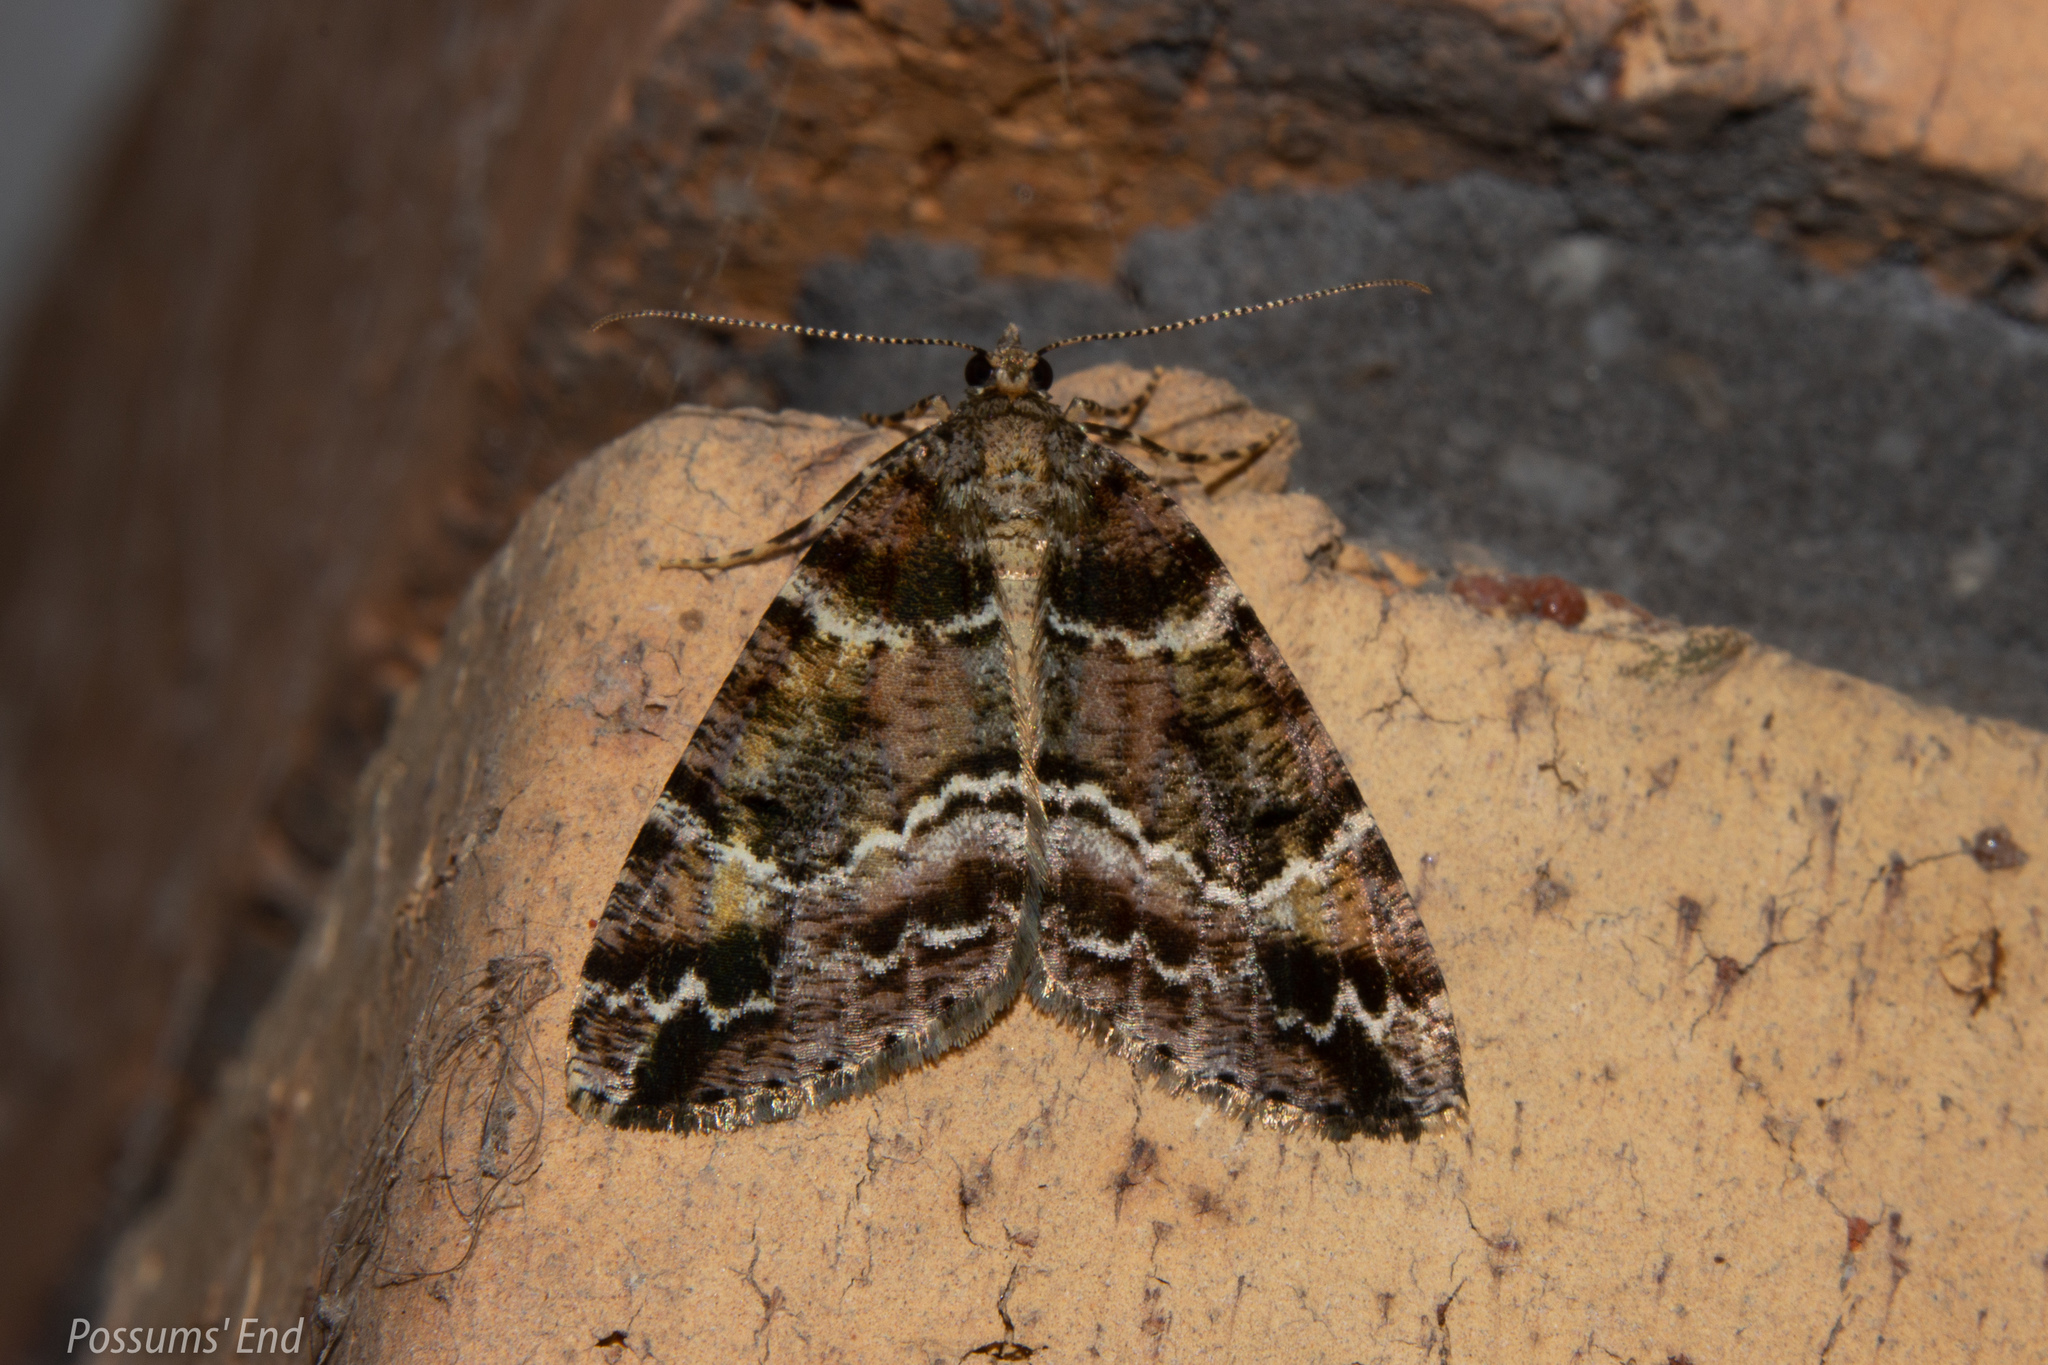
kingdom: Animalia
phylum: Arthropoda
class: Insecta
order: Lepidoptera
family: Geometridae
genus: Pseudocoremia
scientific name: Pseudocoremia productata
